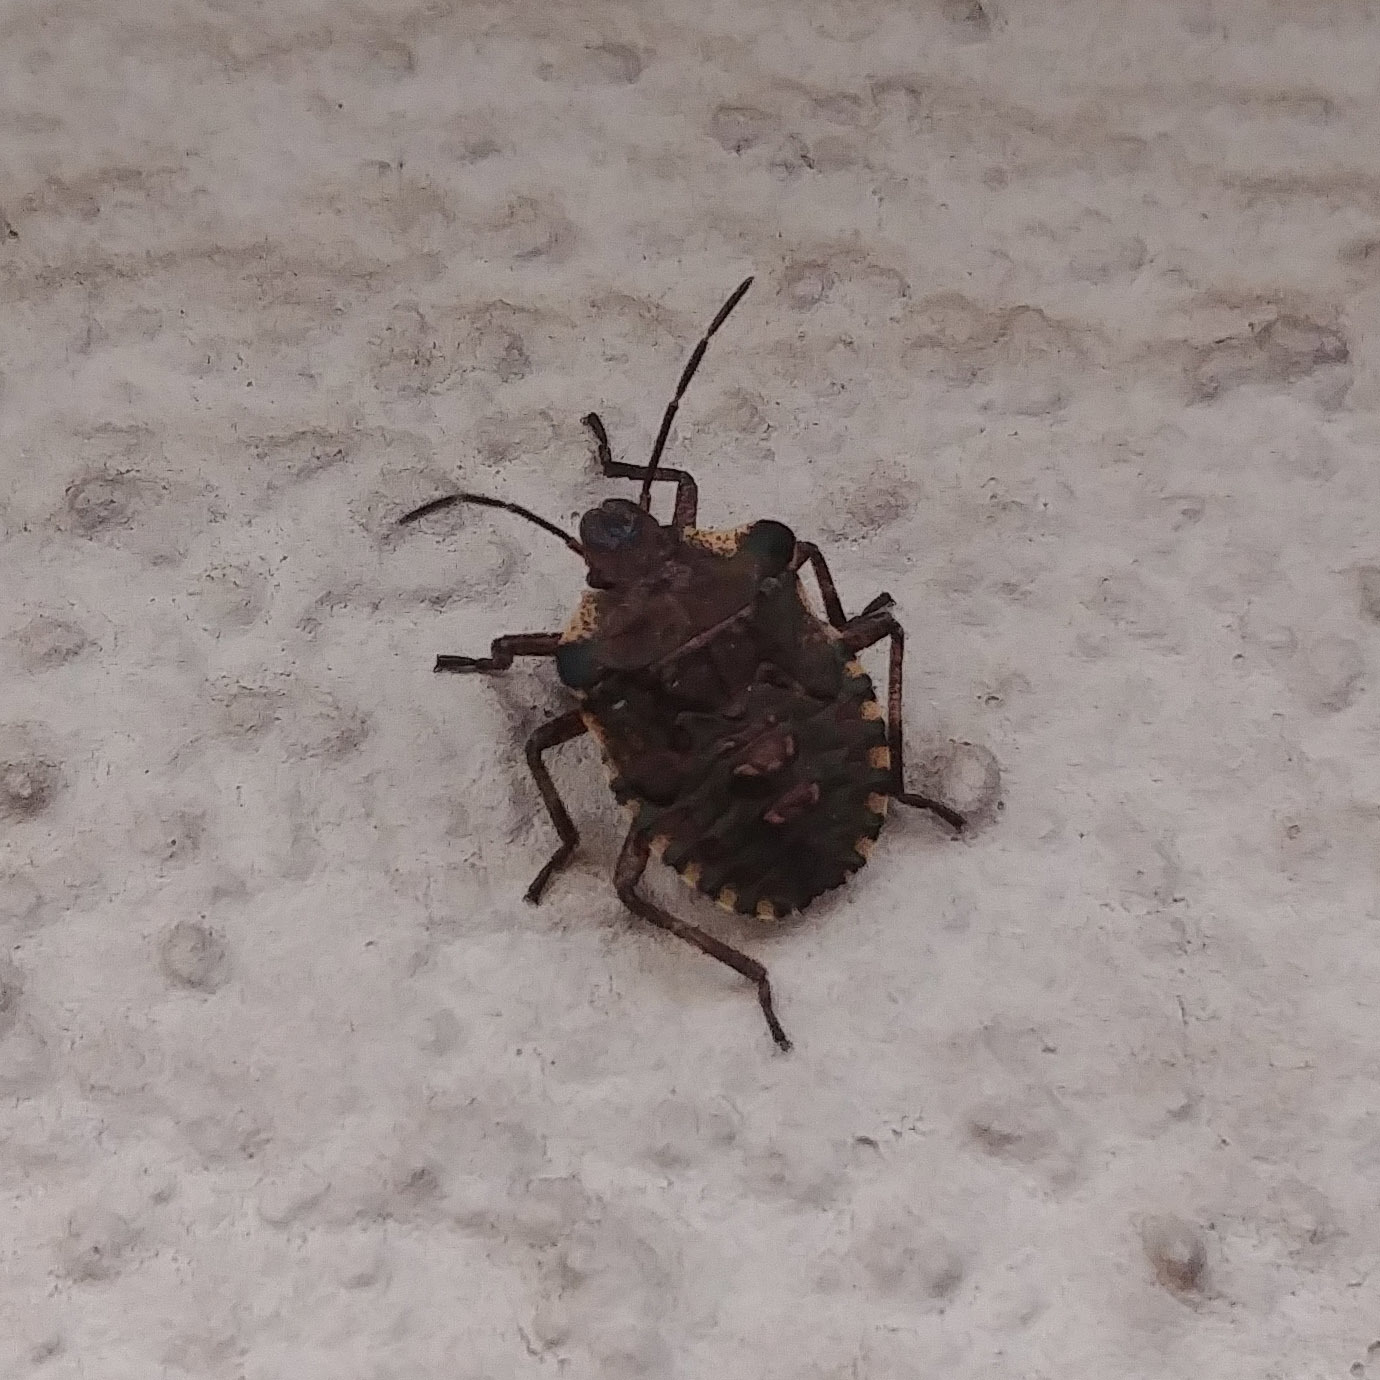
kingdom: Animalia
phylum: Arthropoda
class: Insecta
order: Hemiptera
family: Pentatomidae
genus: Pentatoma
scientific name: Pentatoma rufipes
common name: Forest bug
